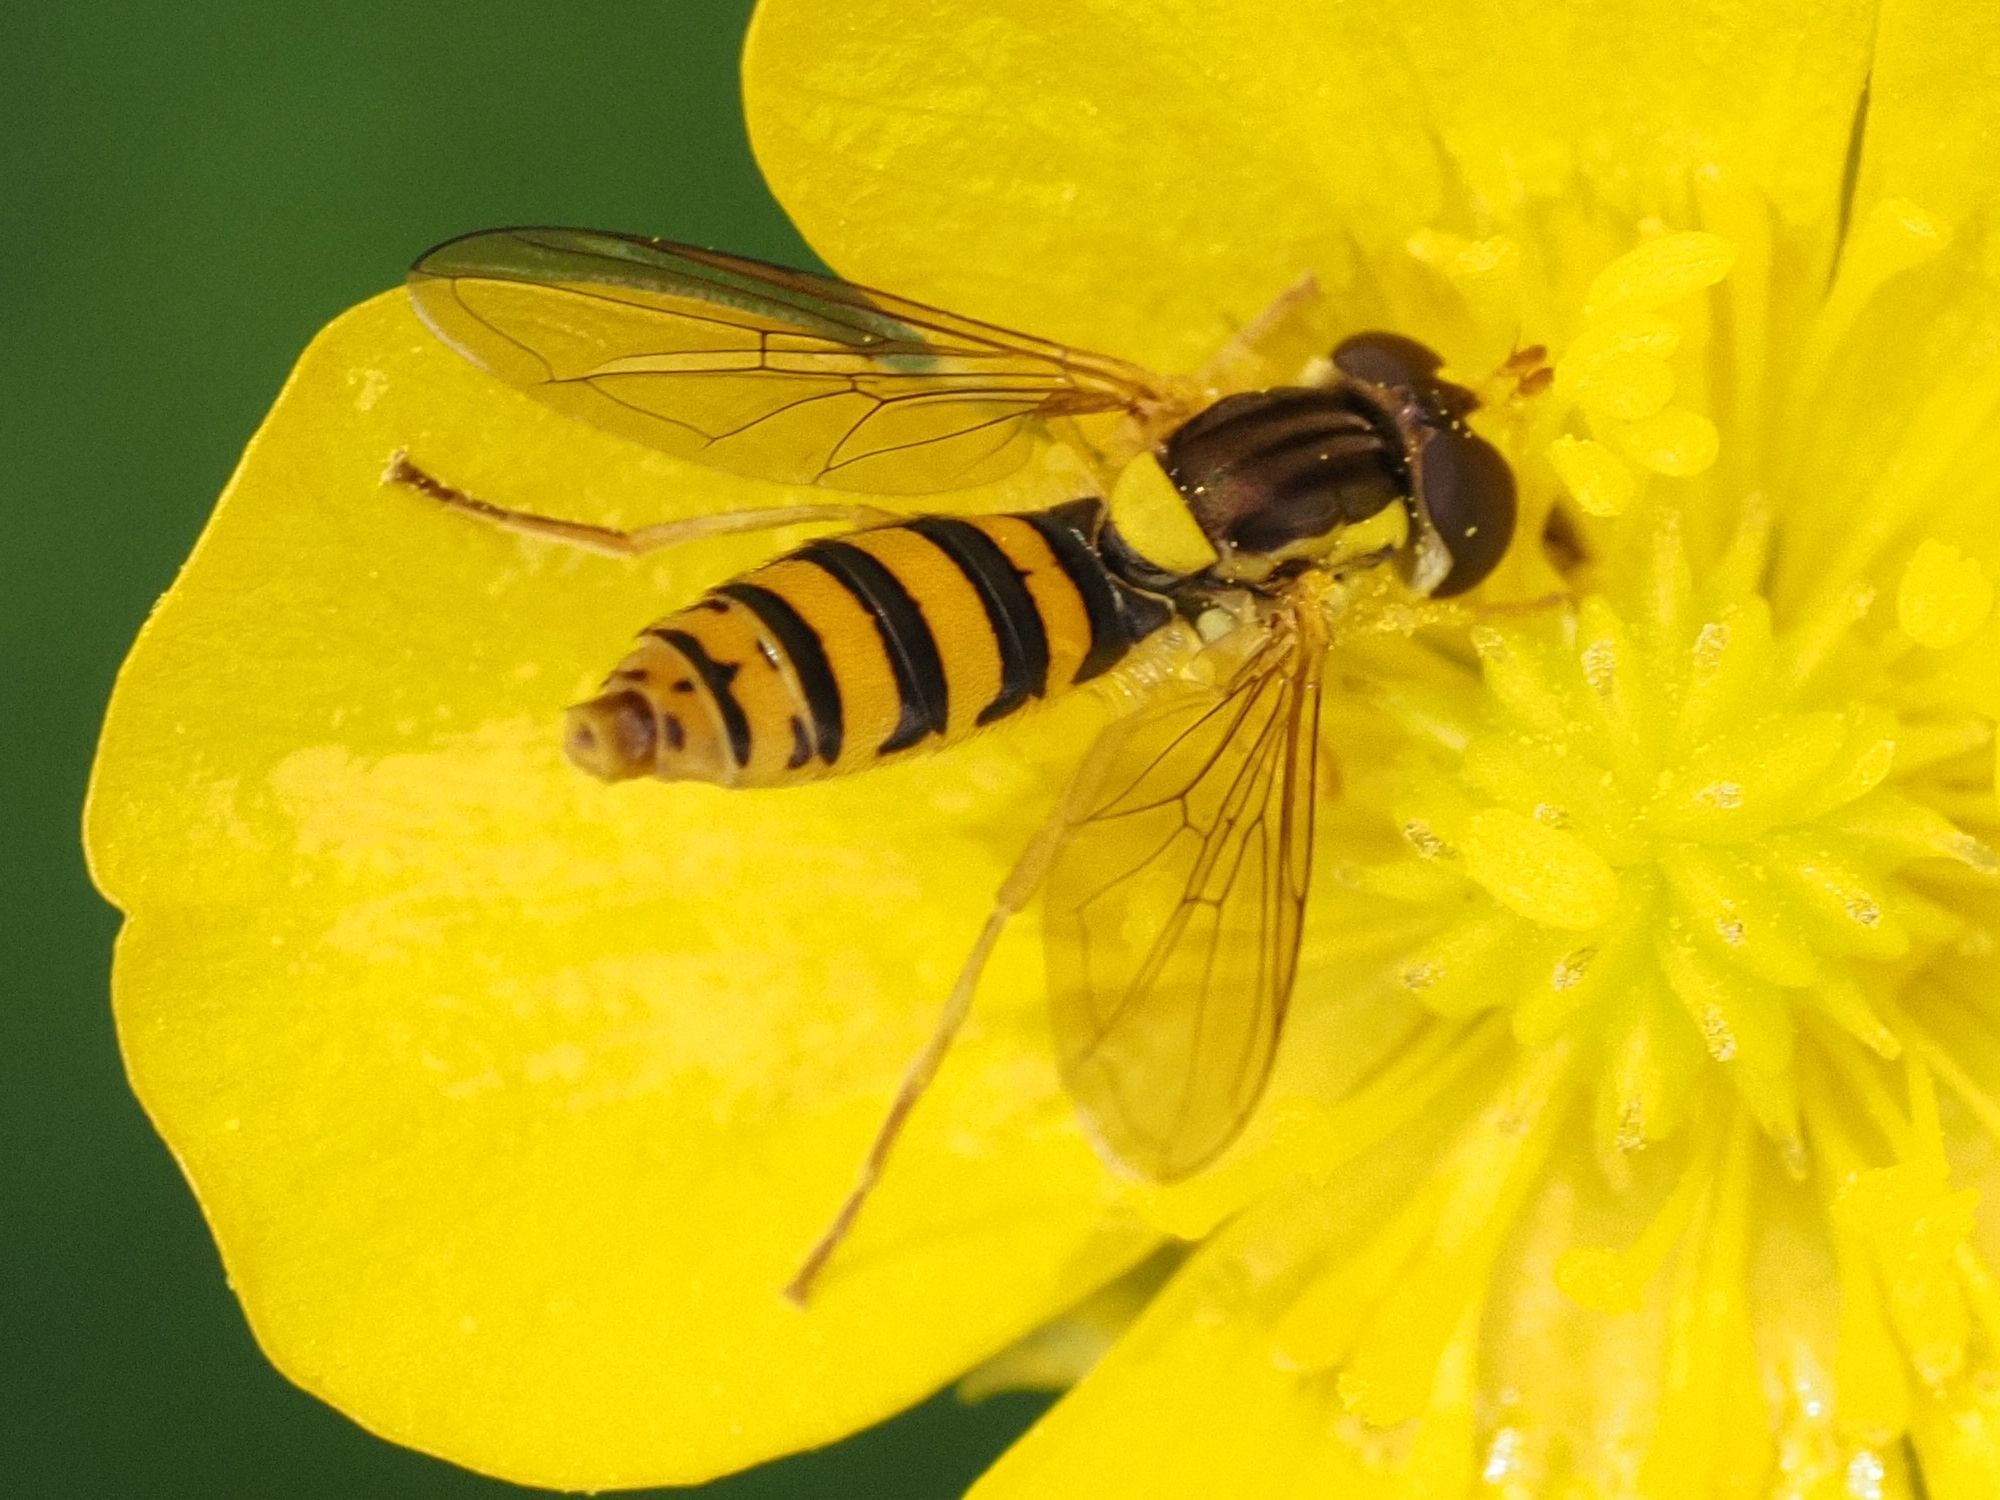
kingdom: Animalia
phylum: Arthropoda
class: Insecta
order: Diptera
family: Syrphidae
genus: Sphaerophoria
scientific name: Sphaerophoria
